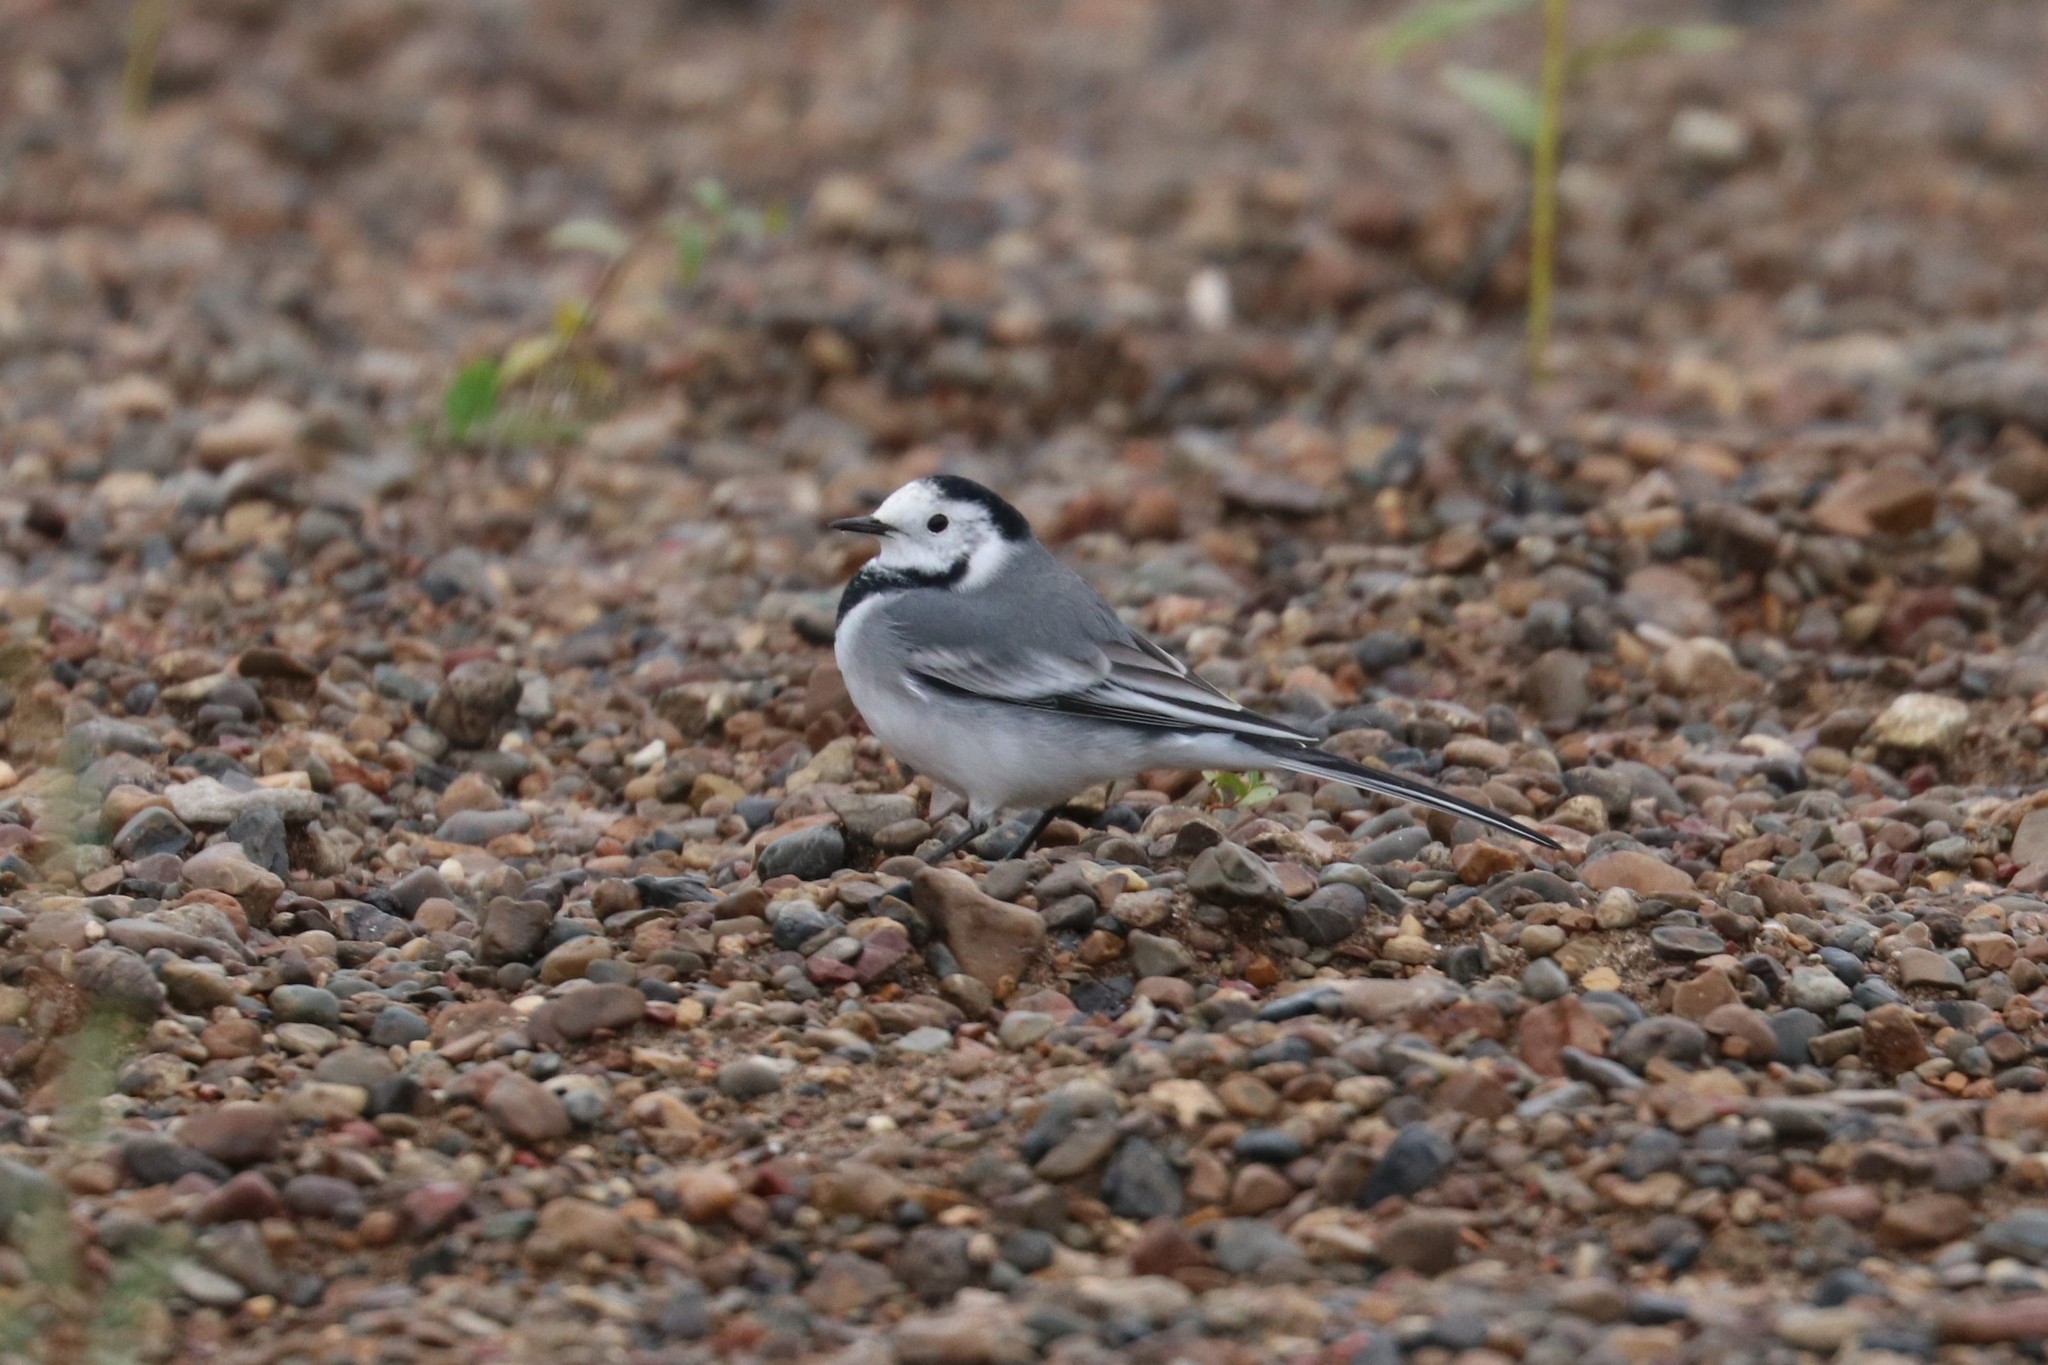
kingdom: Animalia
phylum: Chordata
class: Aves
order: Passeriformes
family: Motacillidae
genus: Motacilla
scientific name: Motacilla alba
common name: White wagtail
